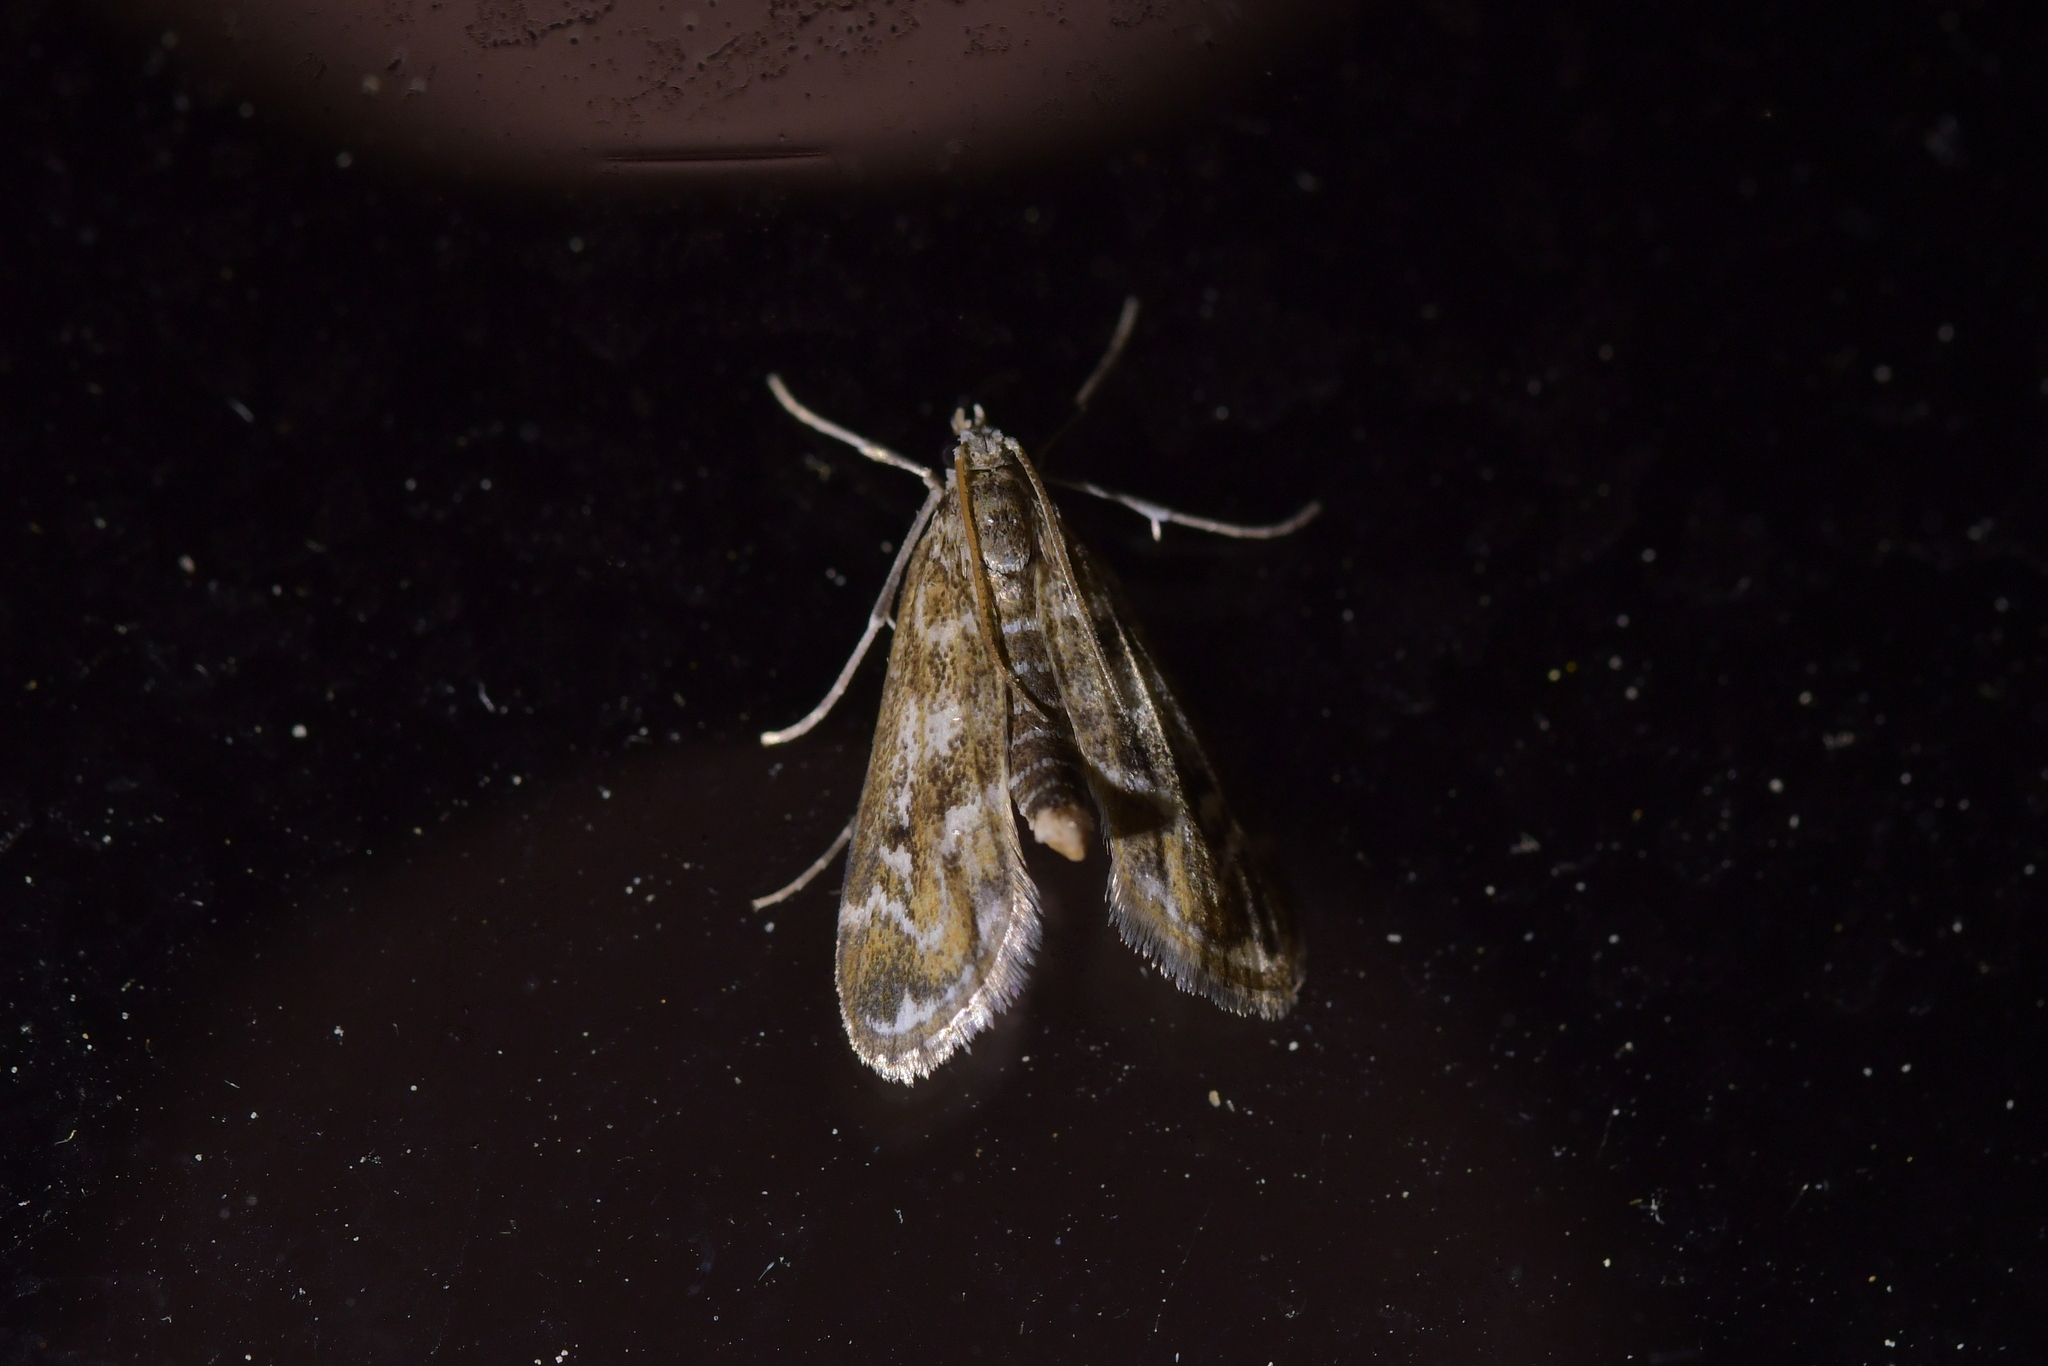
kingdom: Animalia
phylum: Arthropoda
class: Insecta
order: Lepidoptera
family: Crambidae
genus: Hygraula
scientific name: Hygraula nitens
